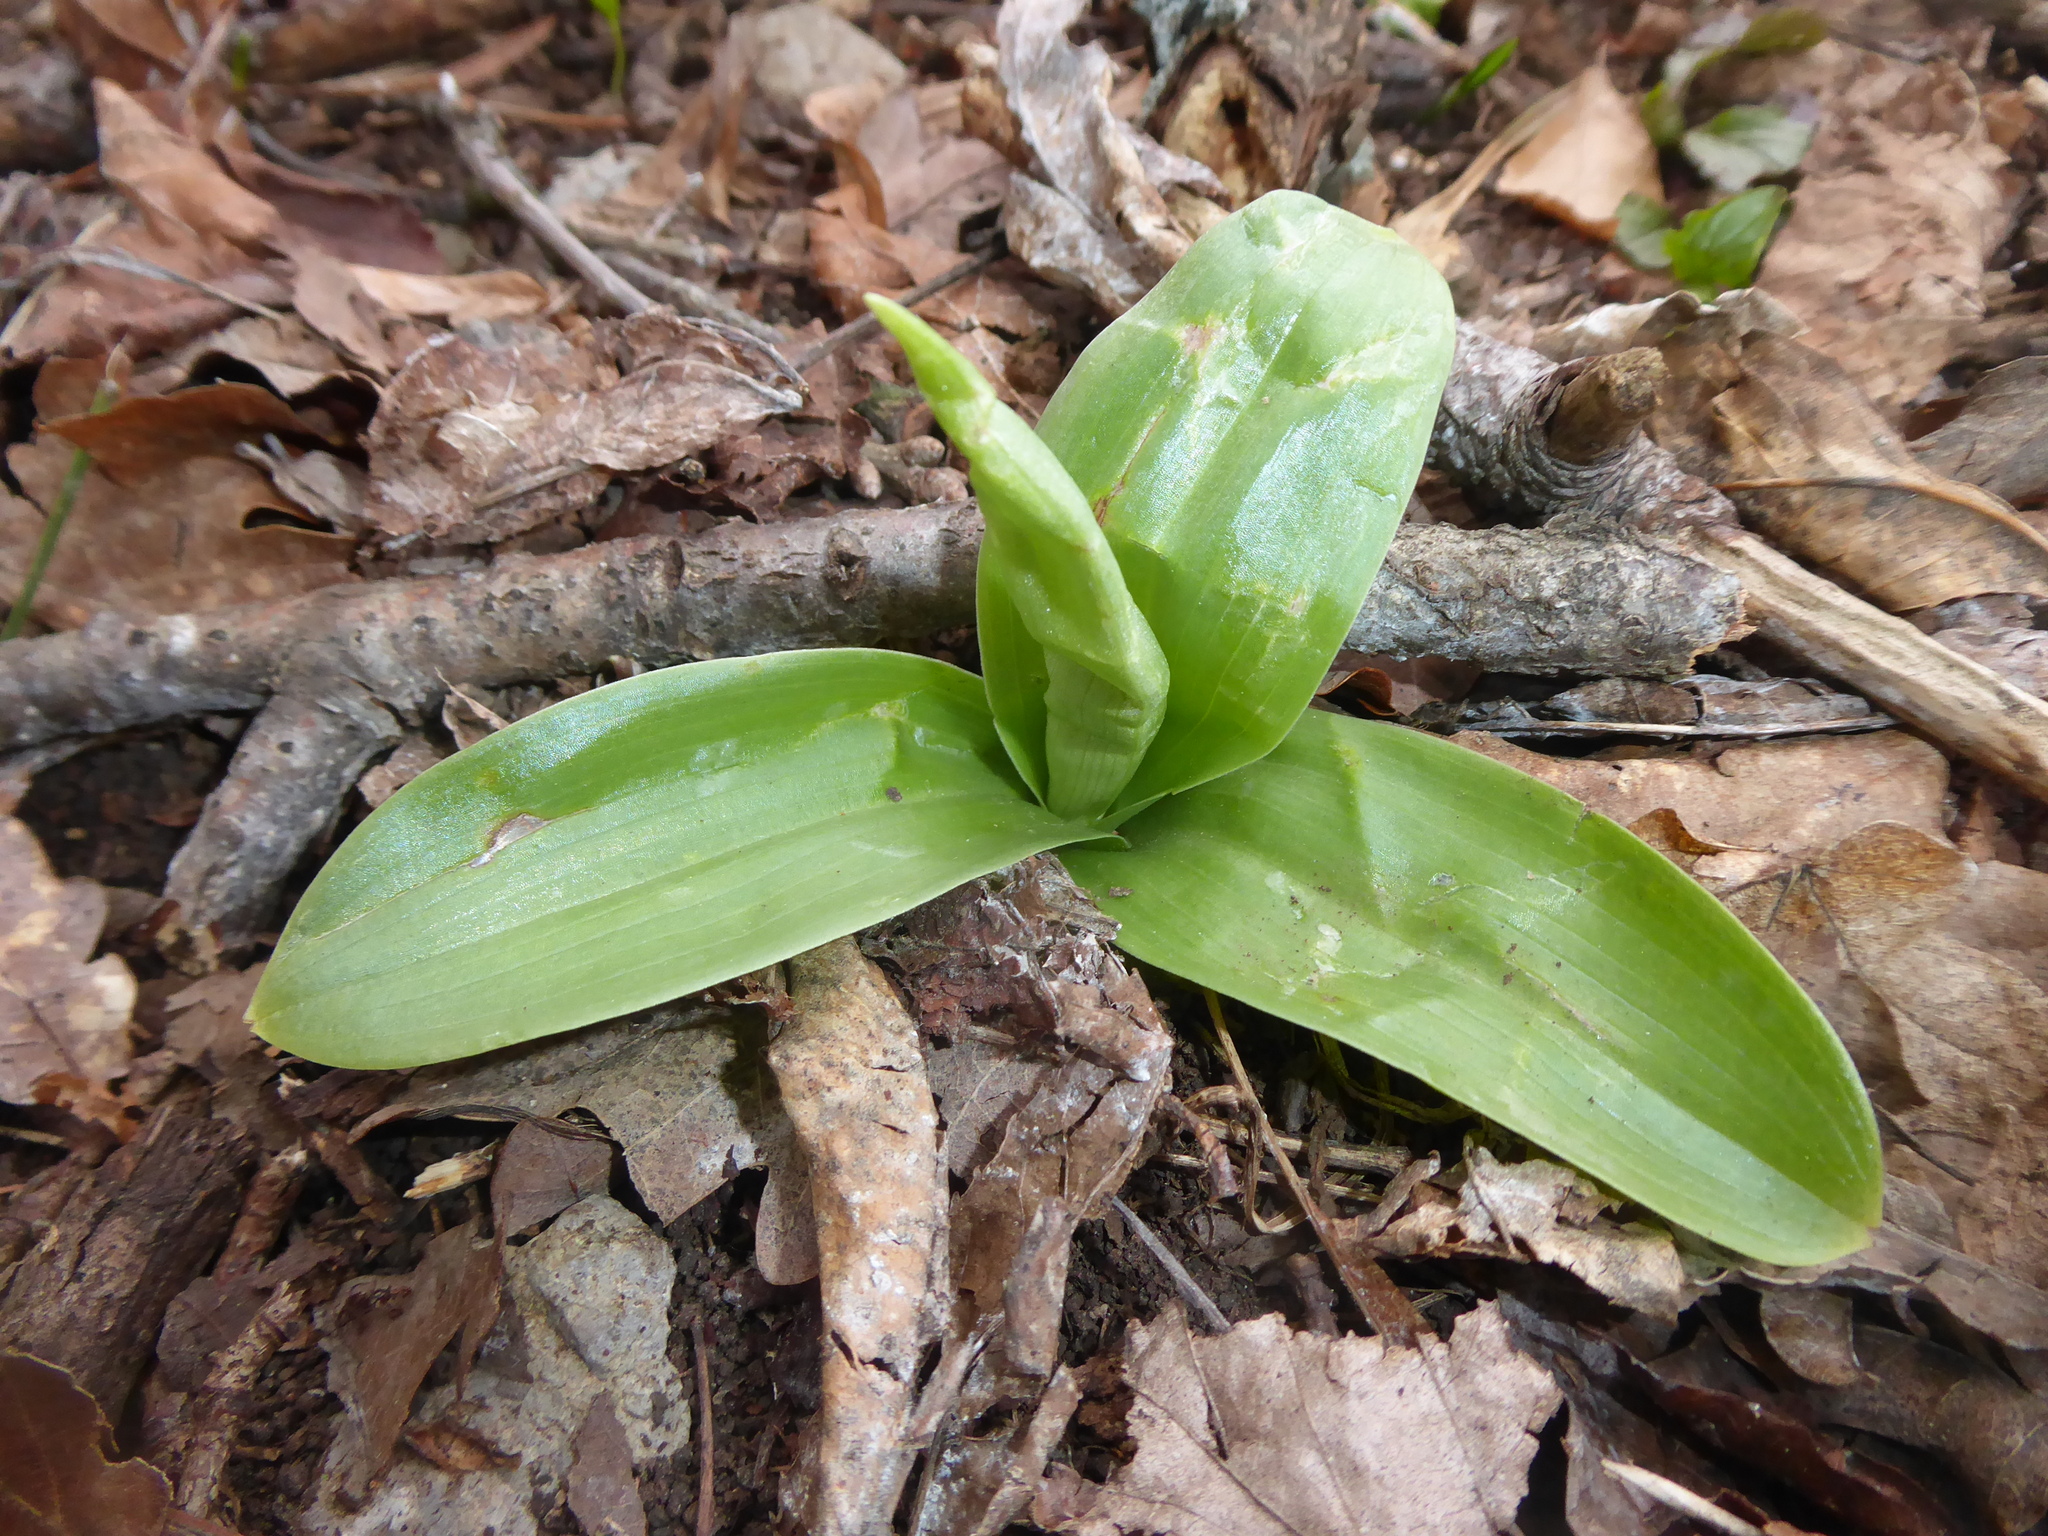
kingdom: Plantae
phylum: Tracheophyta
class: Liliopsida
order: Asparagales
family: Orchidaceae
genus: Orchis
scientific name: Orchis pallens
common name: Pale-flowered orchid
